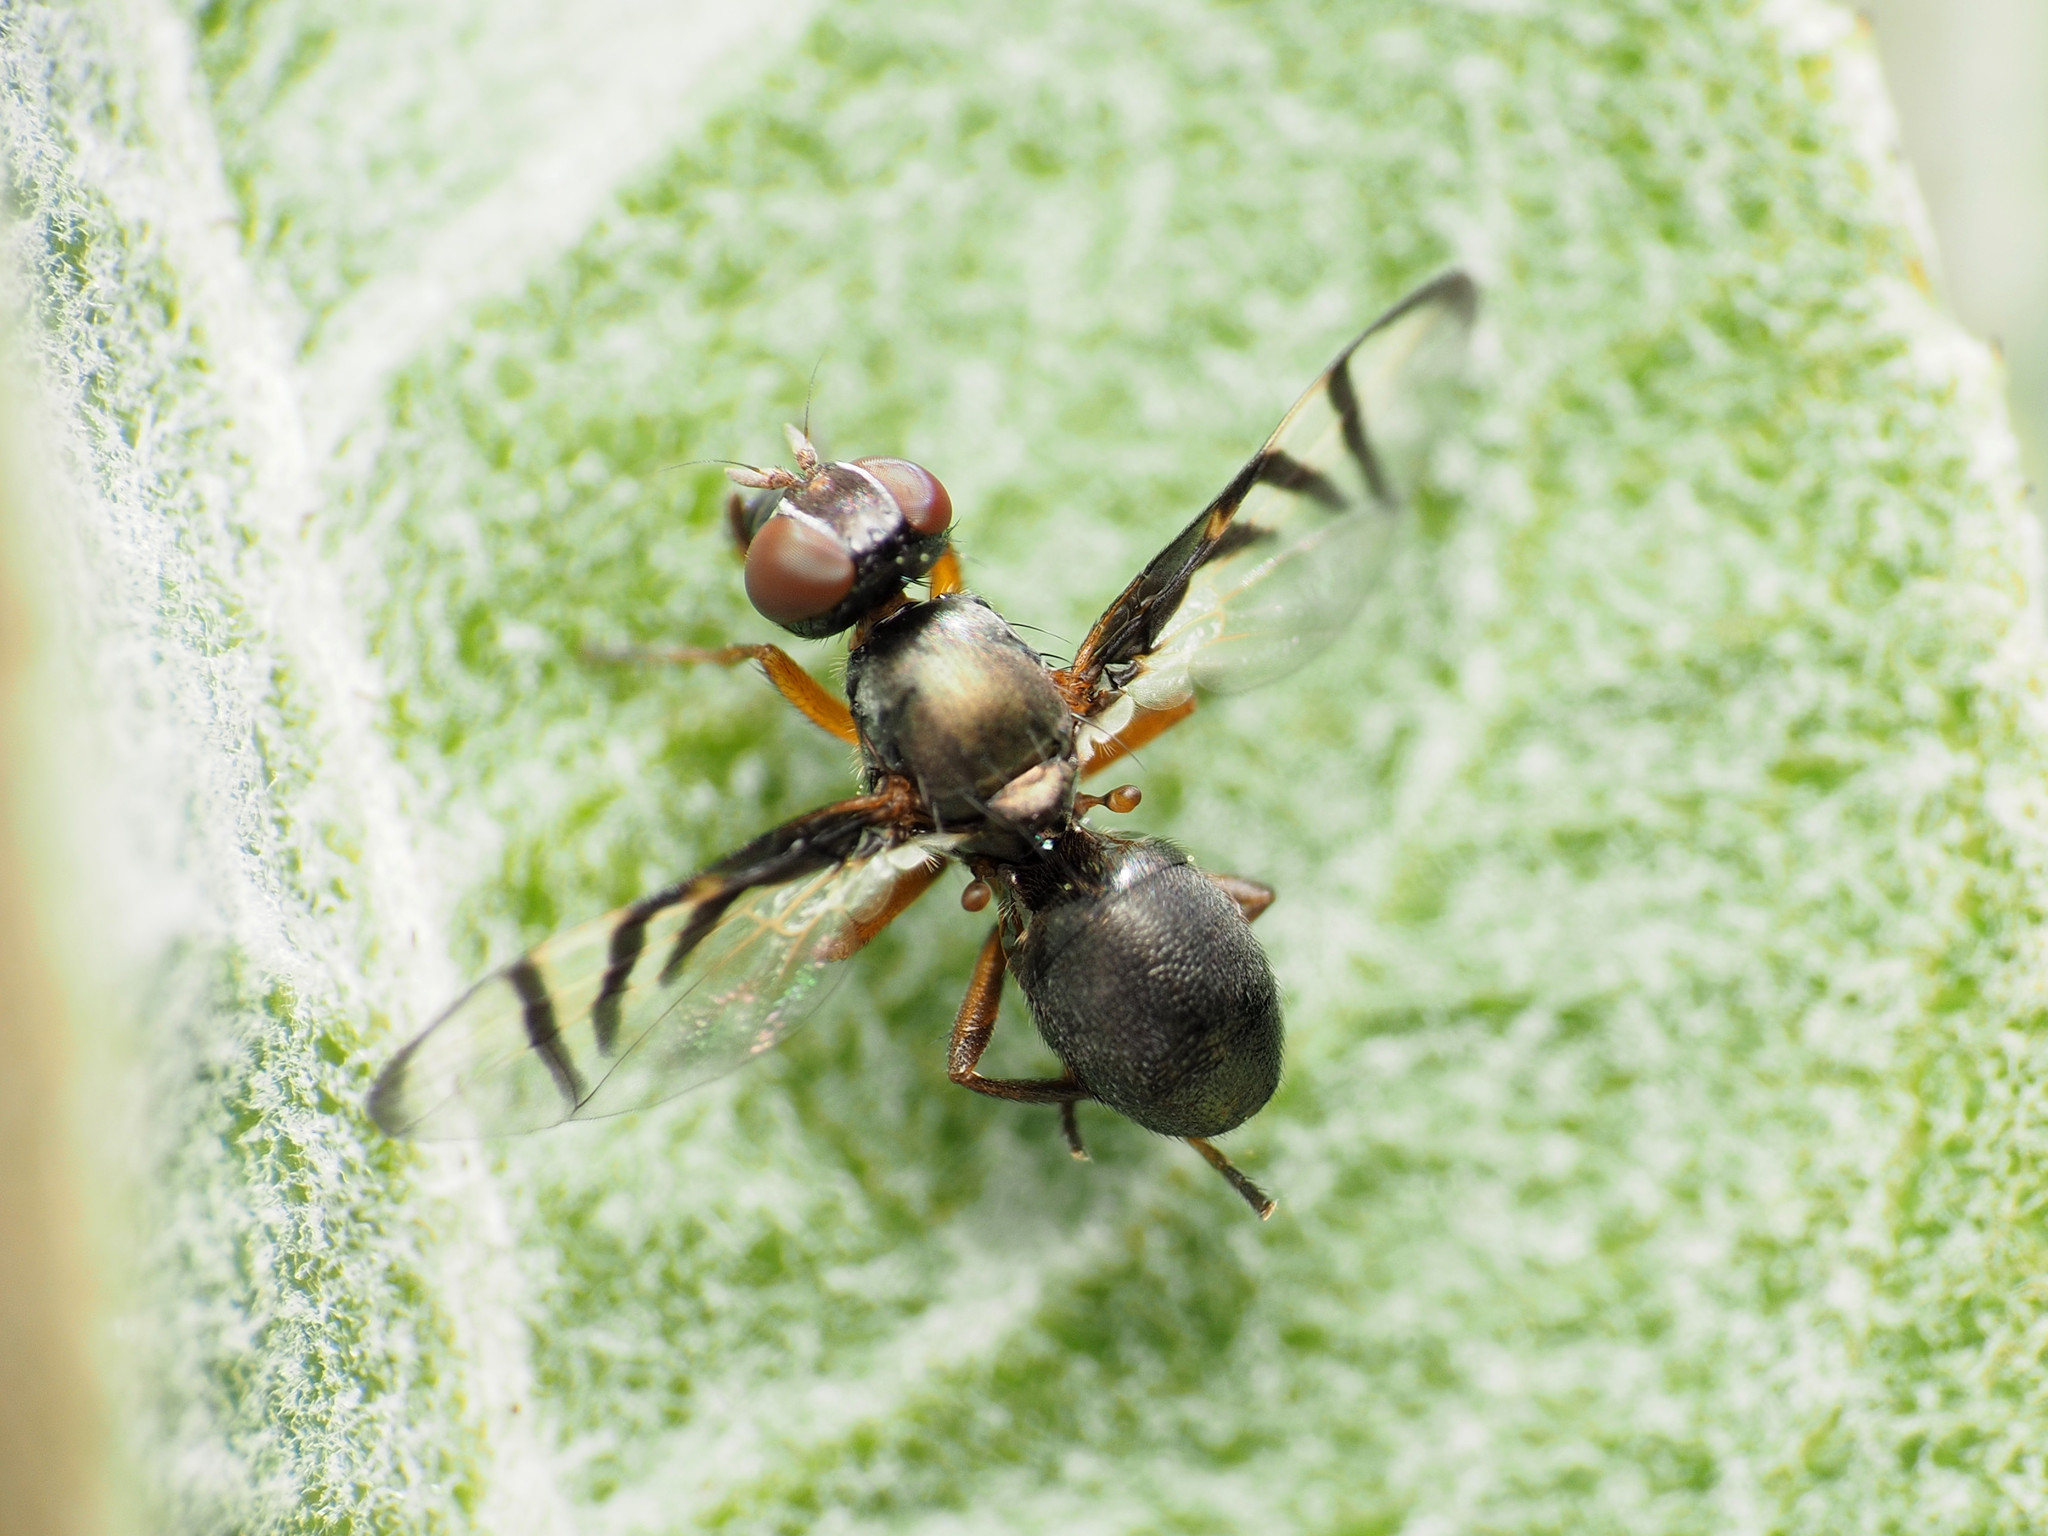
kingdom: Animalia
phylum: Arthropoda
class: Insecta
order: Diptera
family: Platystomatidae
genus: Rivellia
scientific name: Rivellia steyskali
